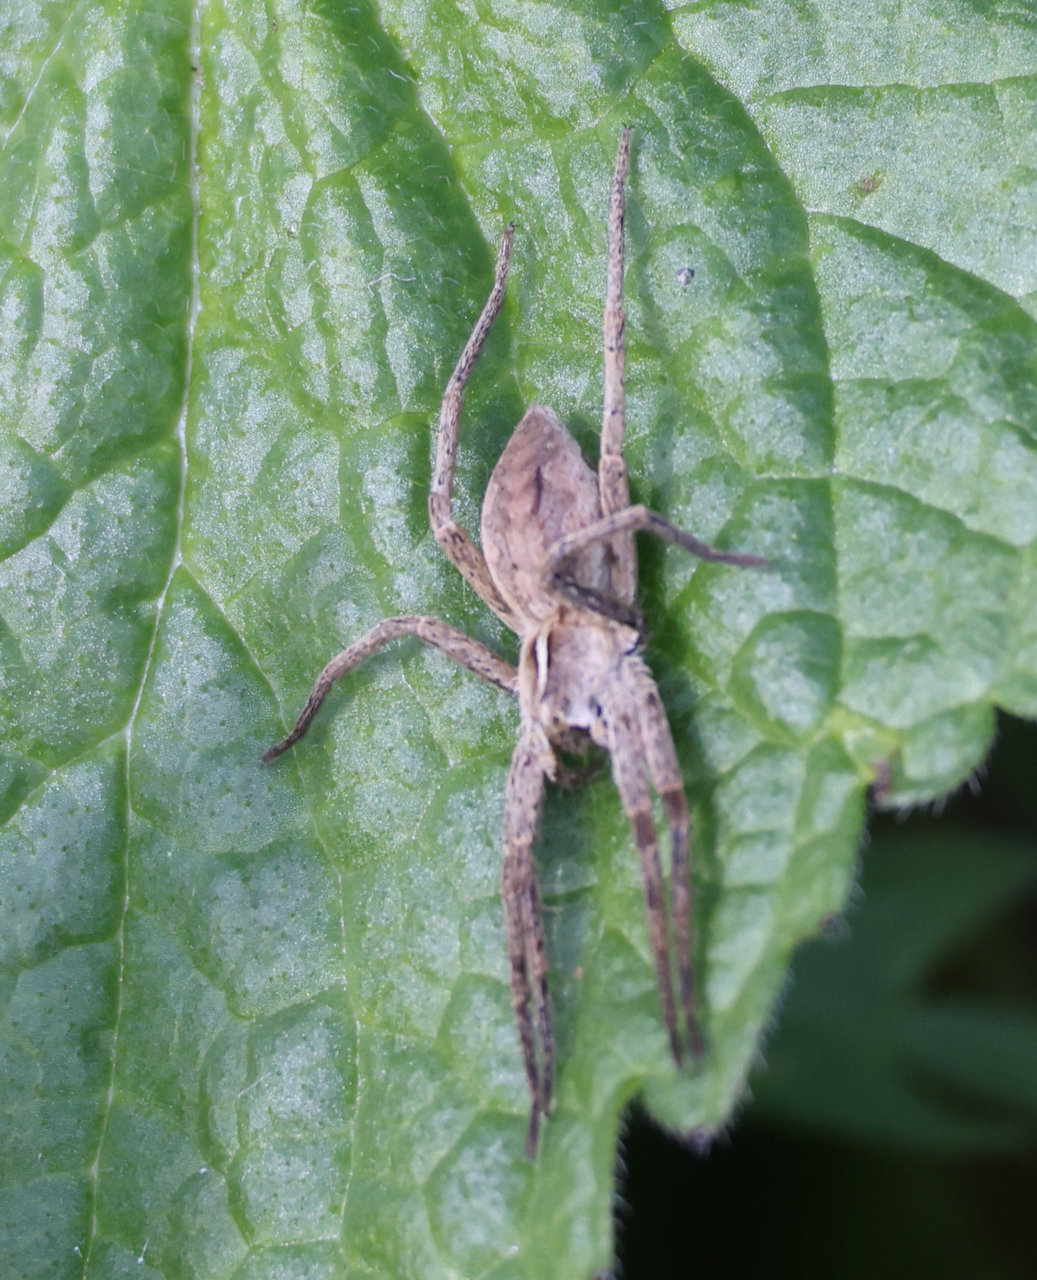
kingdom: Animalia
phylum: Arthropoda
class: Arachnida
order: Araneae
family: Pisauridae
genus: Pisaura
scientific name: Pisaura mirabilis
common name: Tent spider
